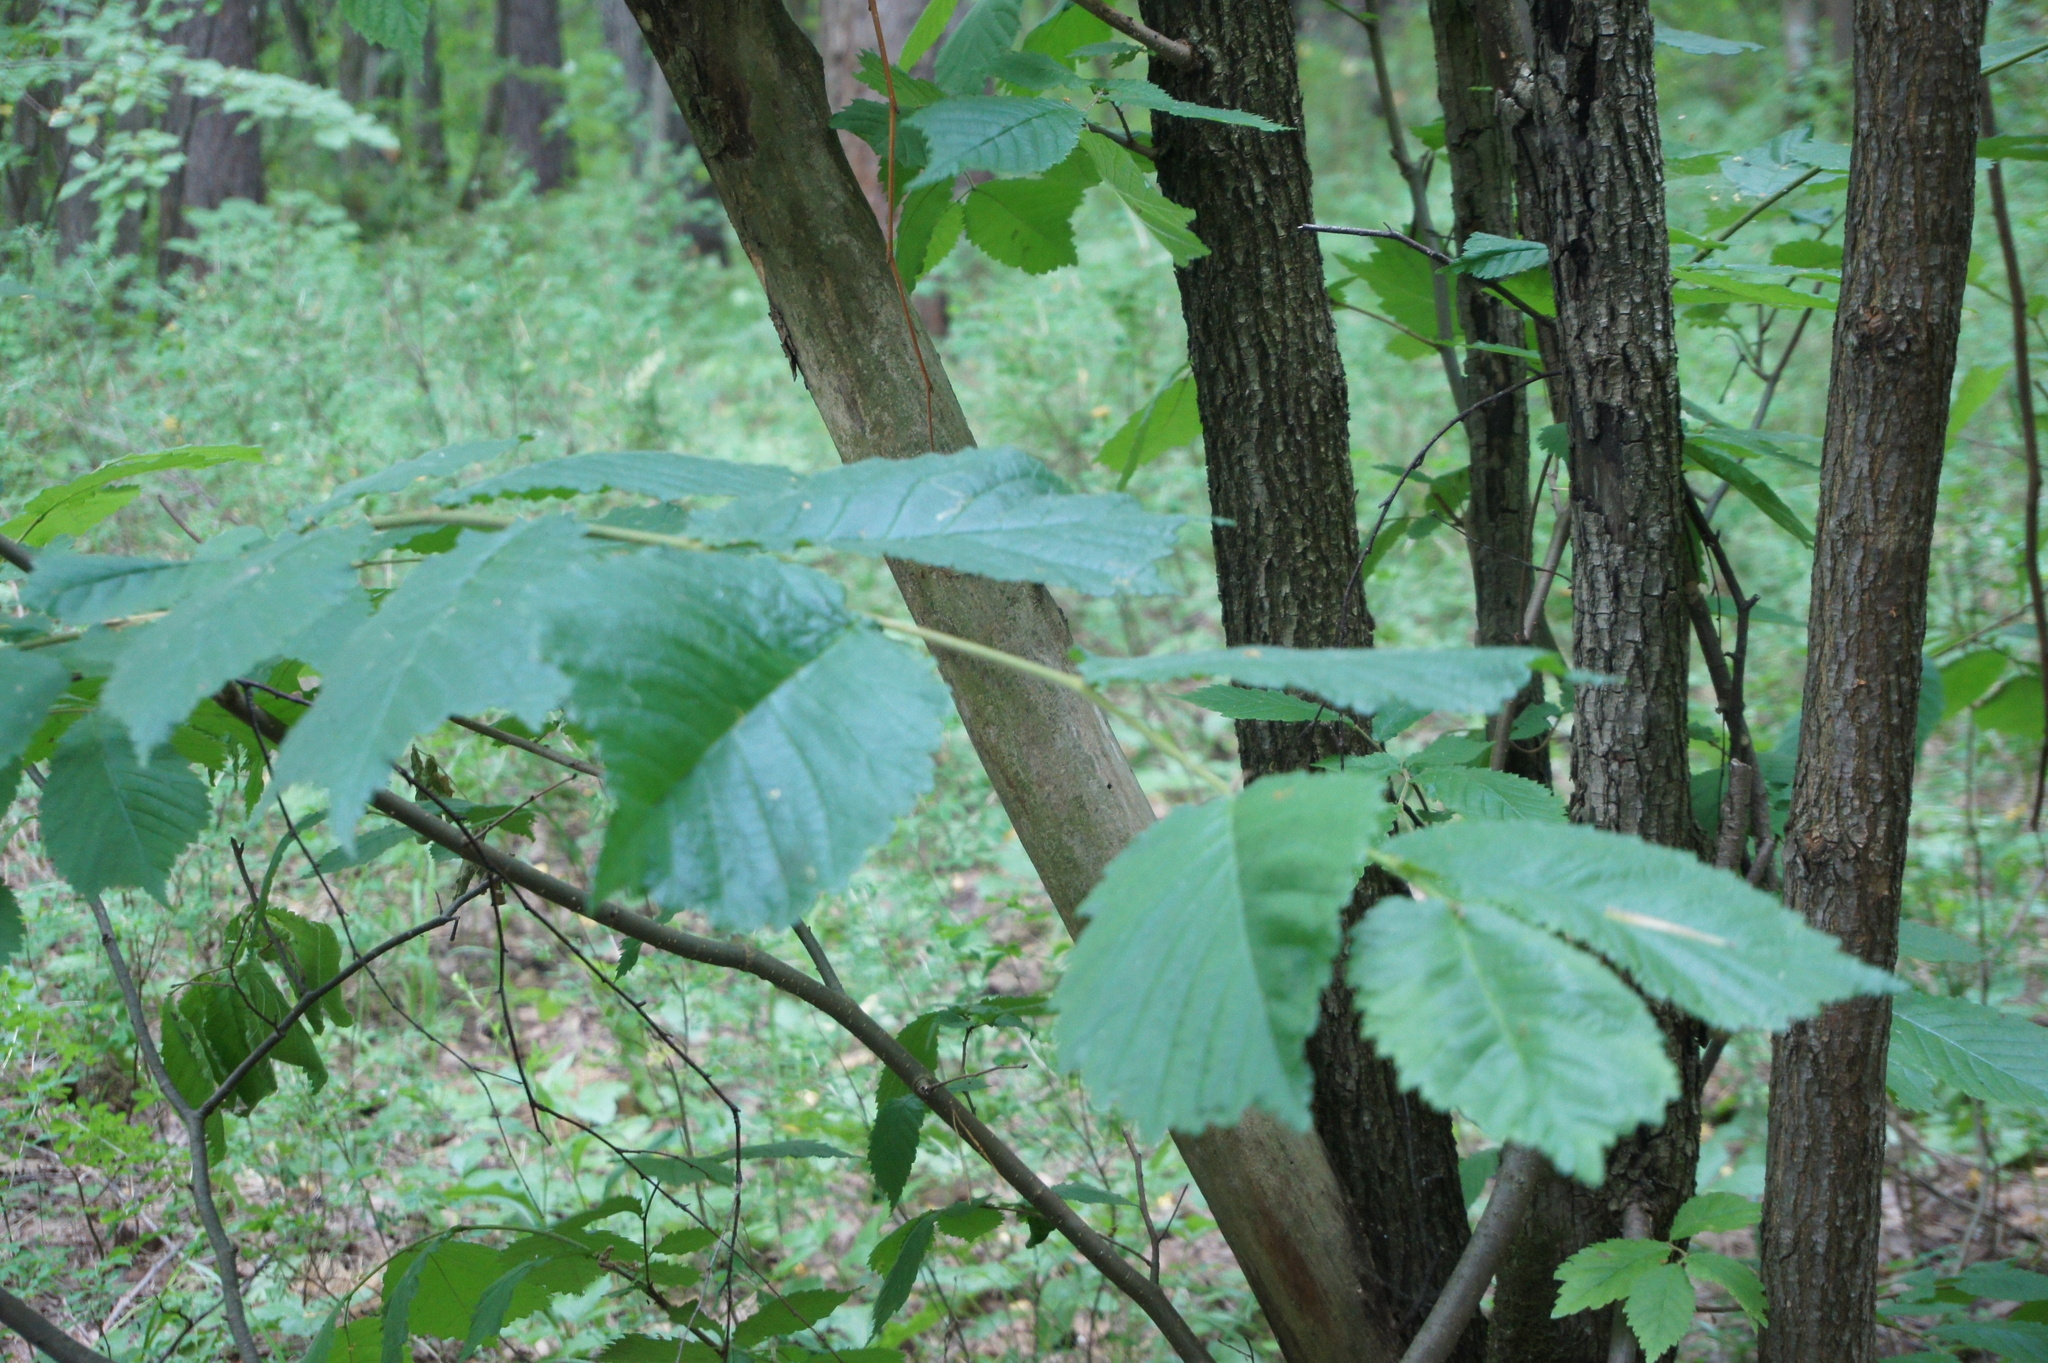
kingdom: Plantae
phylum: Tracheophyta
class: Magnoliopsida
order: Rosales
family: Ulmaceae
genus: Ulmus
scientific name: Ulmus glabra
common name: Wych elm
